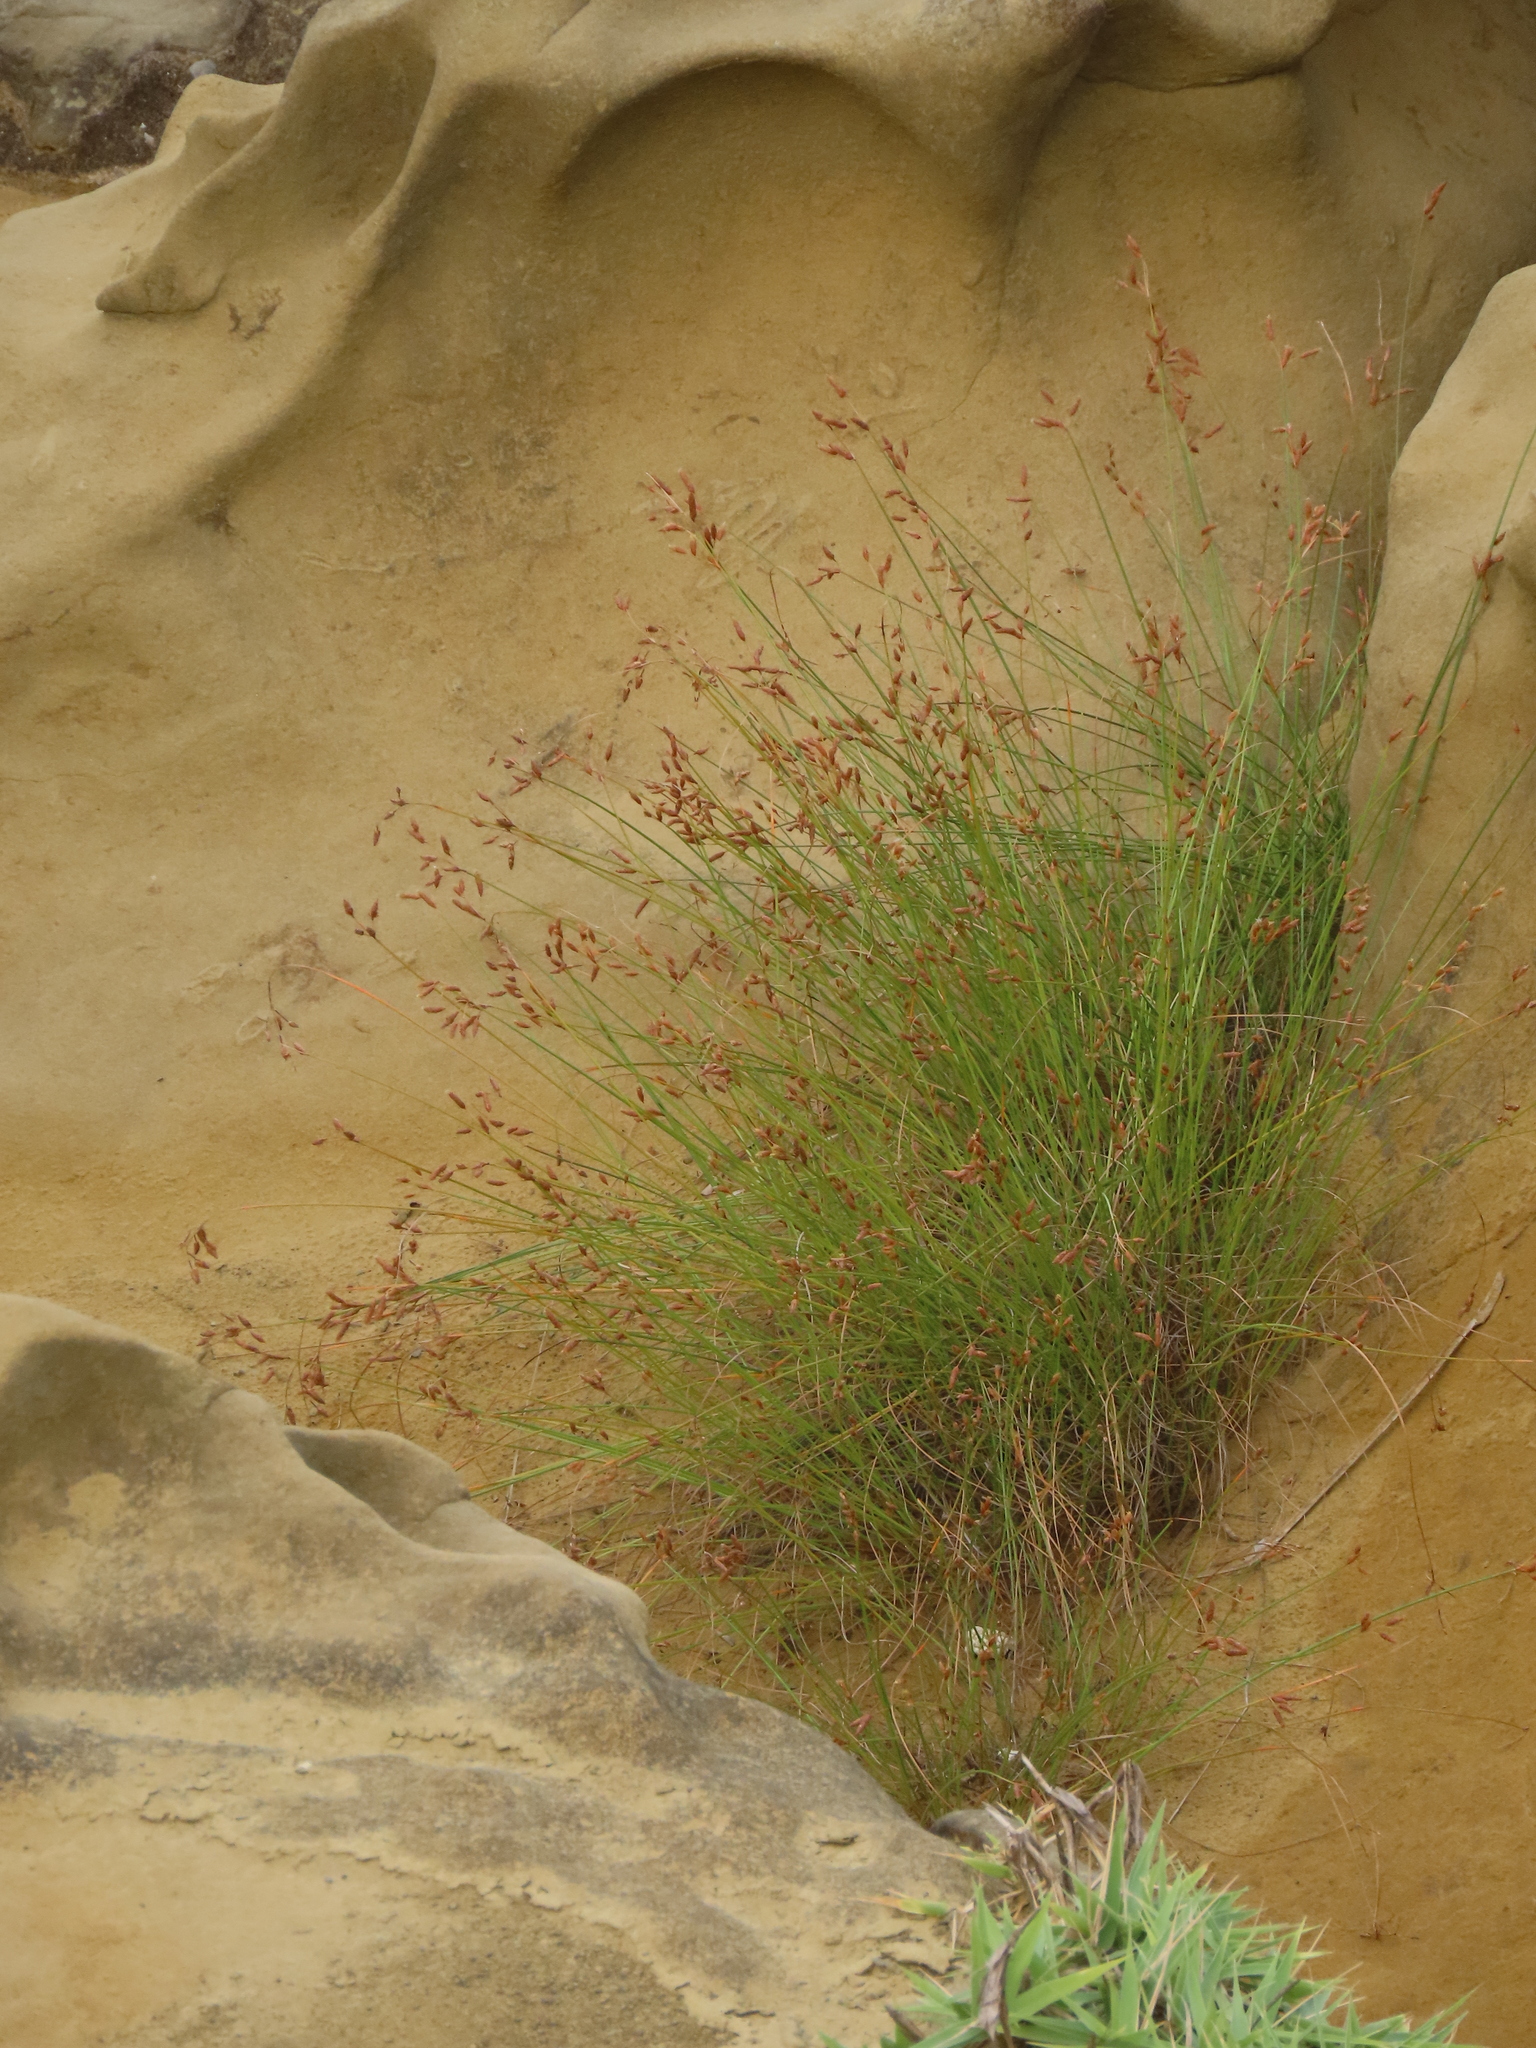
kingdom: Plantae
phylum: Tracheophyta
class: Liliopsida
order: Poales
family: Cyperaceae
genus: Fimbristylis
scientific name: Fimbristylis sieboldii
